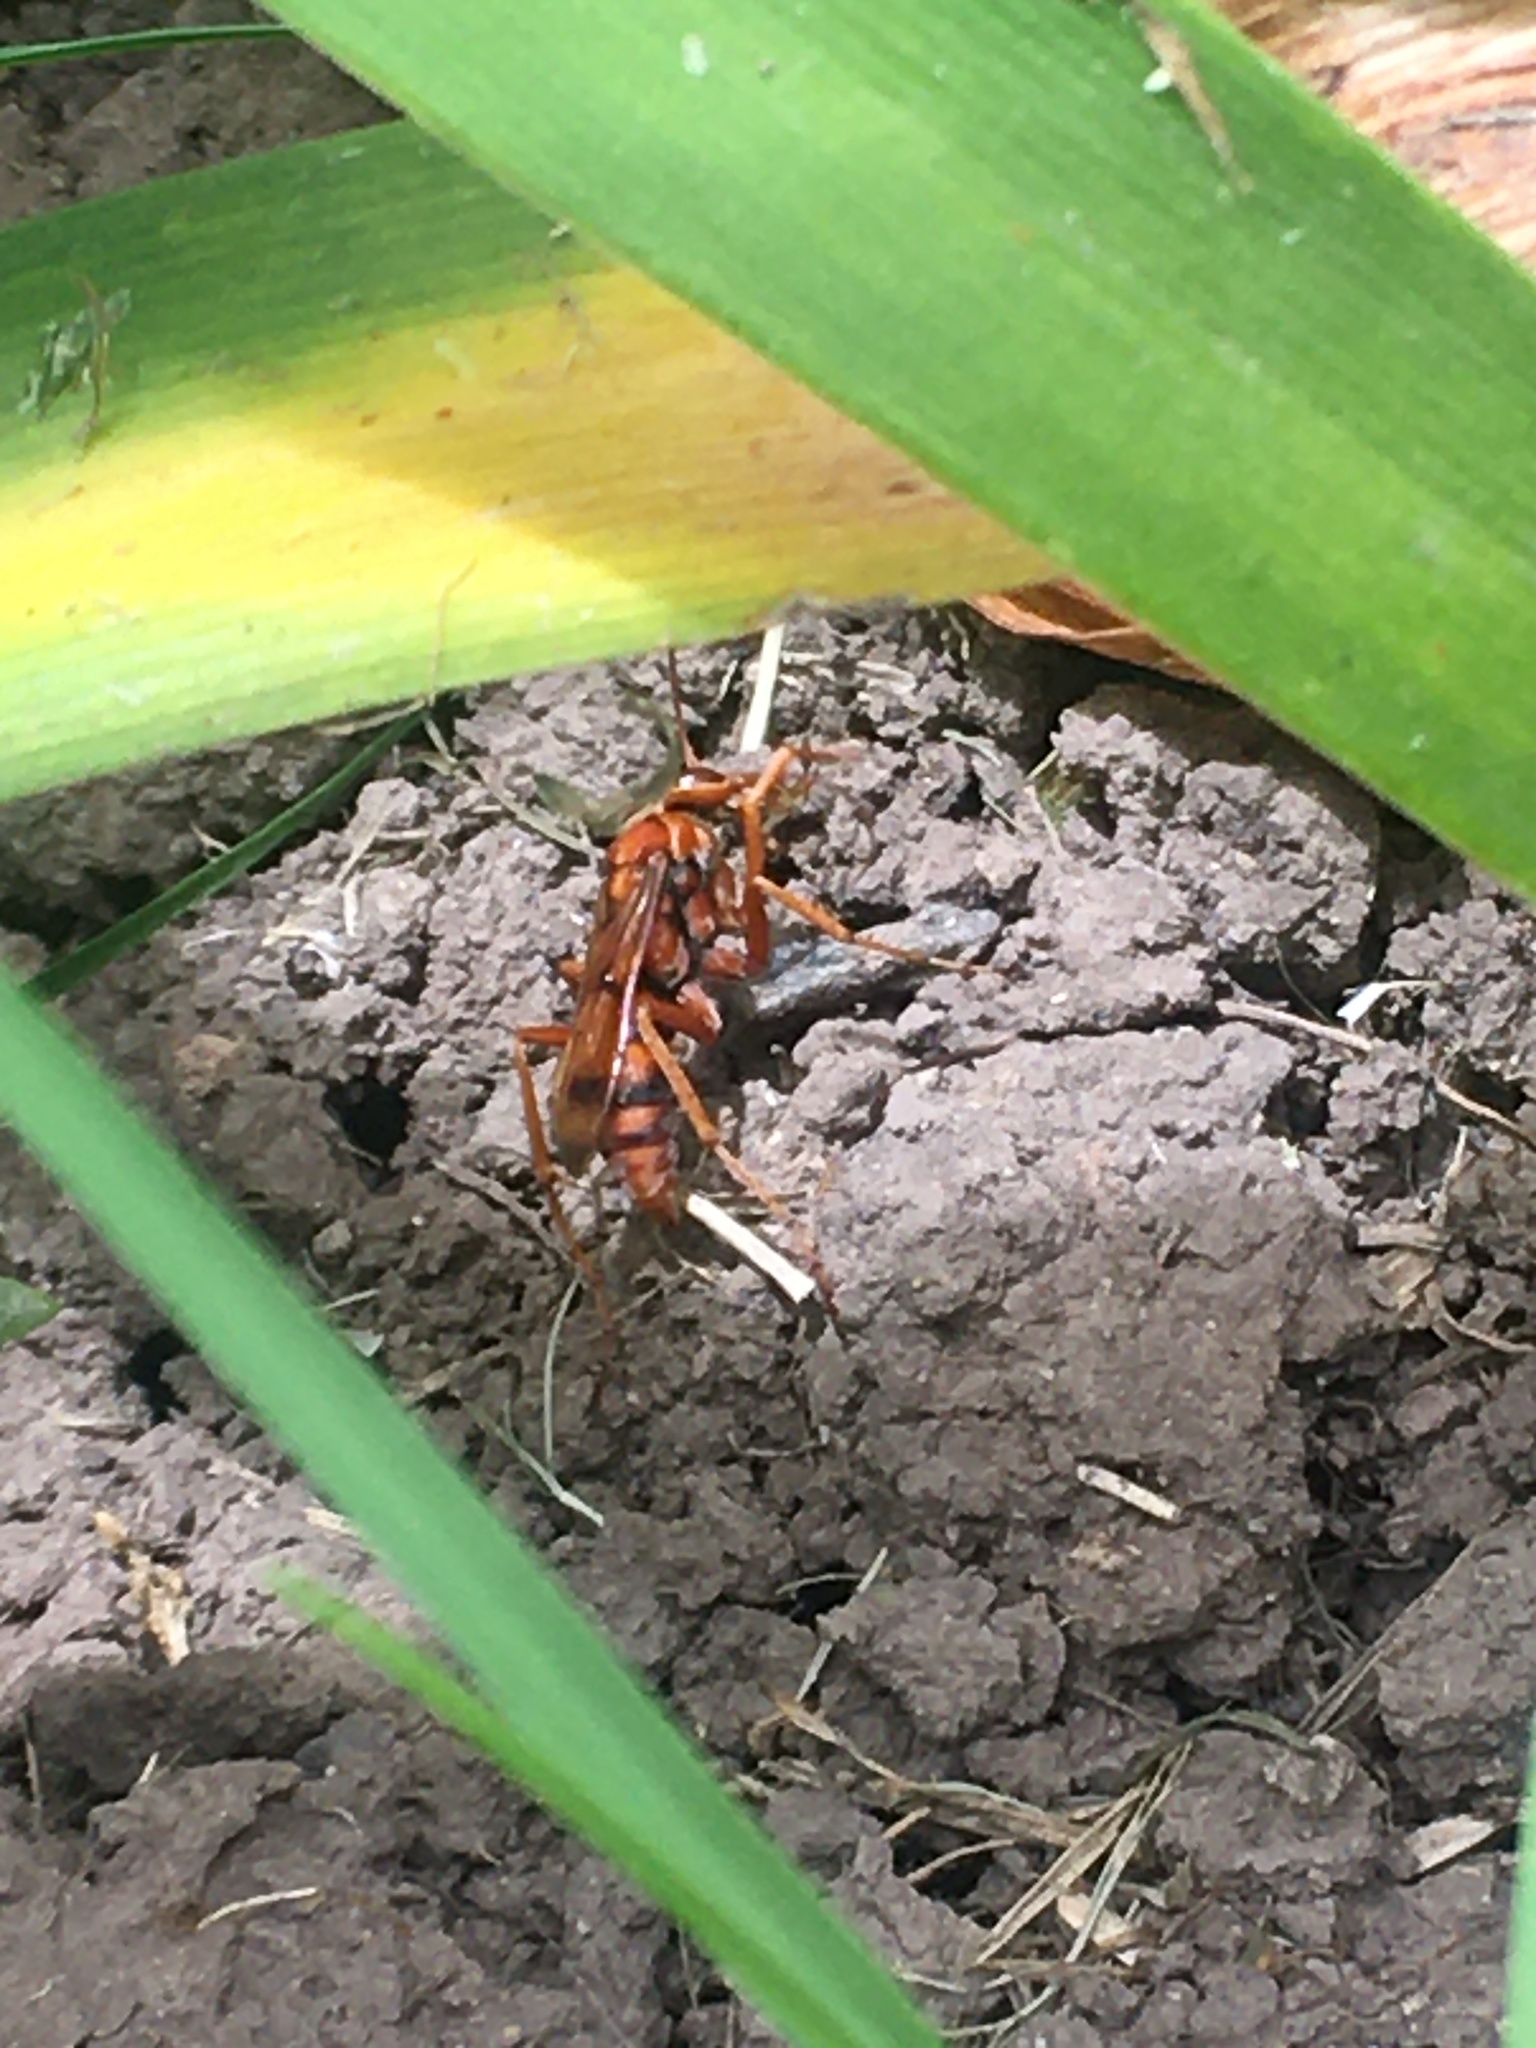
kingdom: Animalia
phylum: Arthropoda
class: Insecta
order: Hymenoptera
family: Pompilidae
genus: Tachypompilus
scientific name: Tachypompilus mendozae
